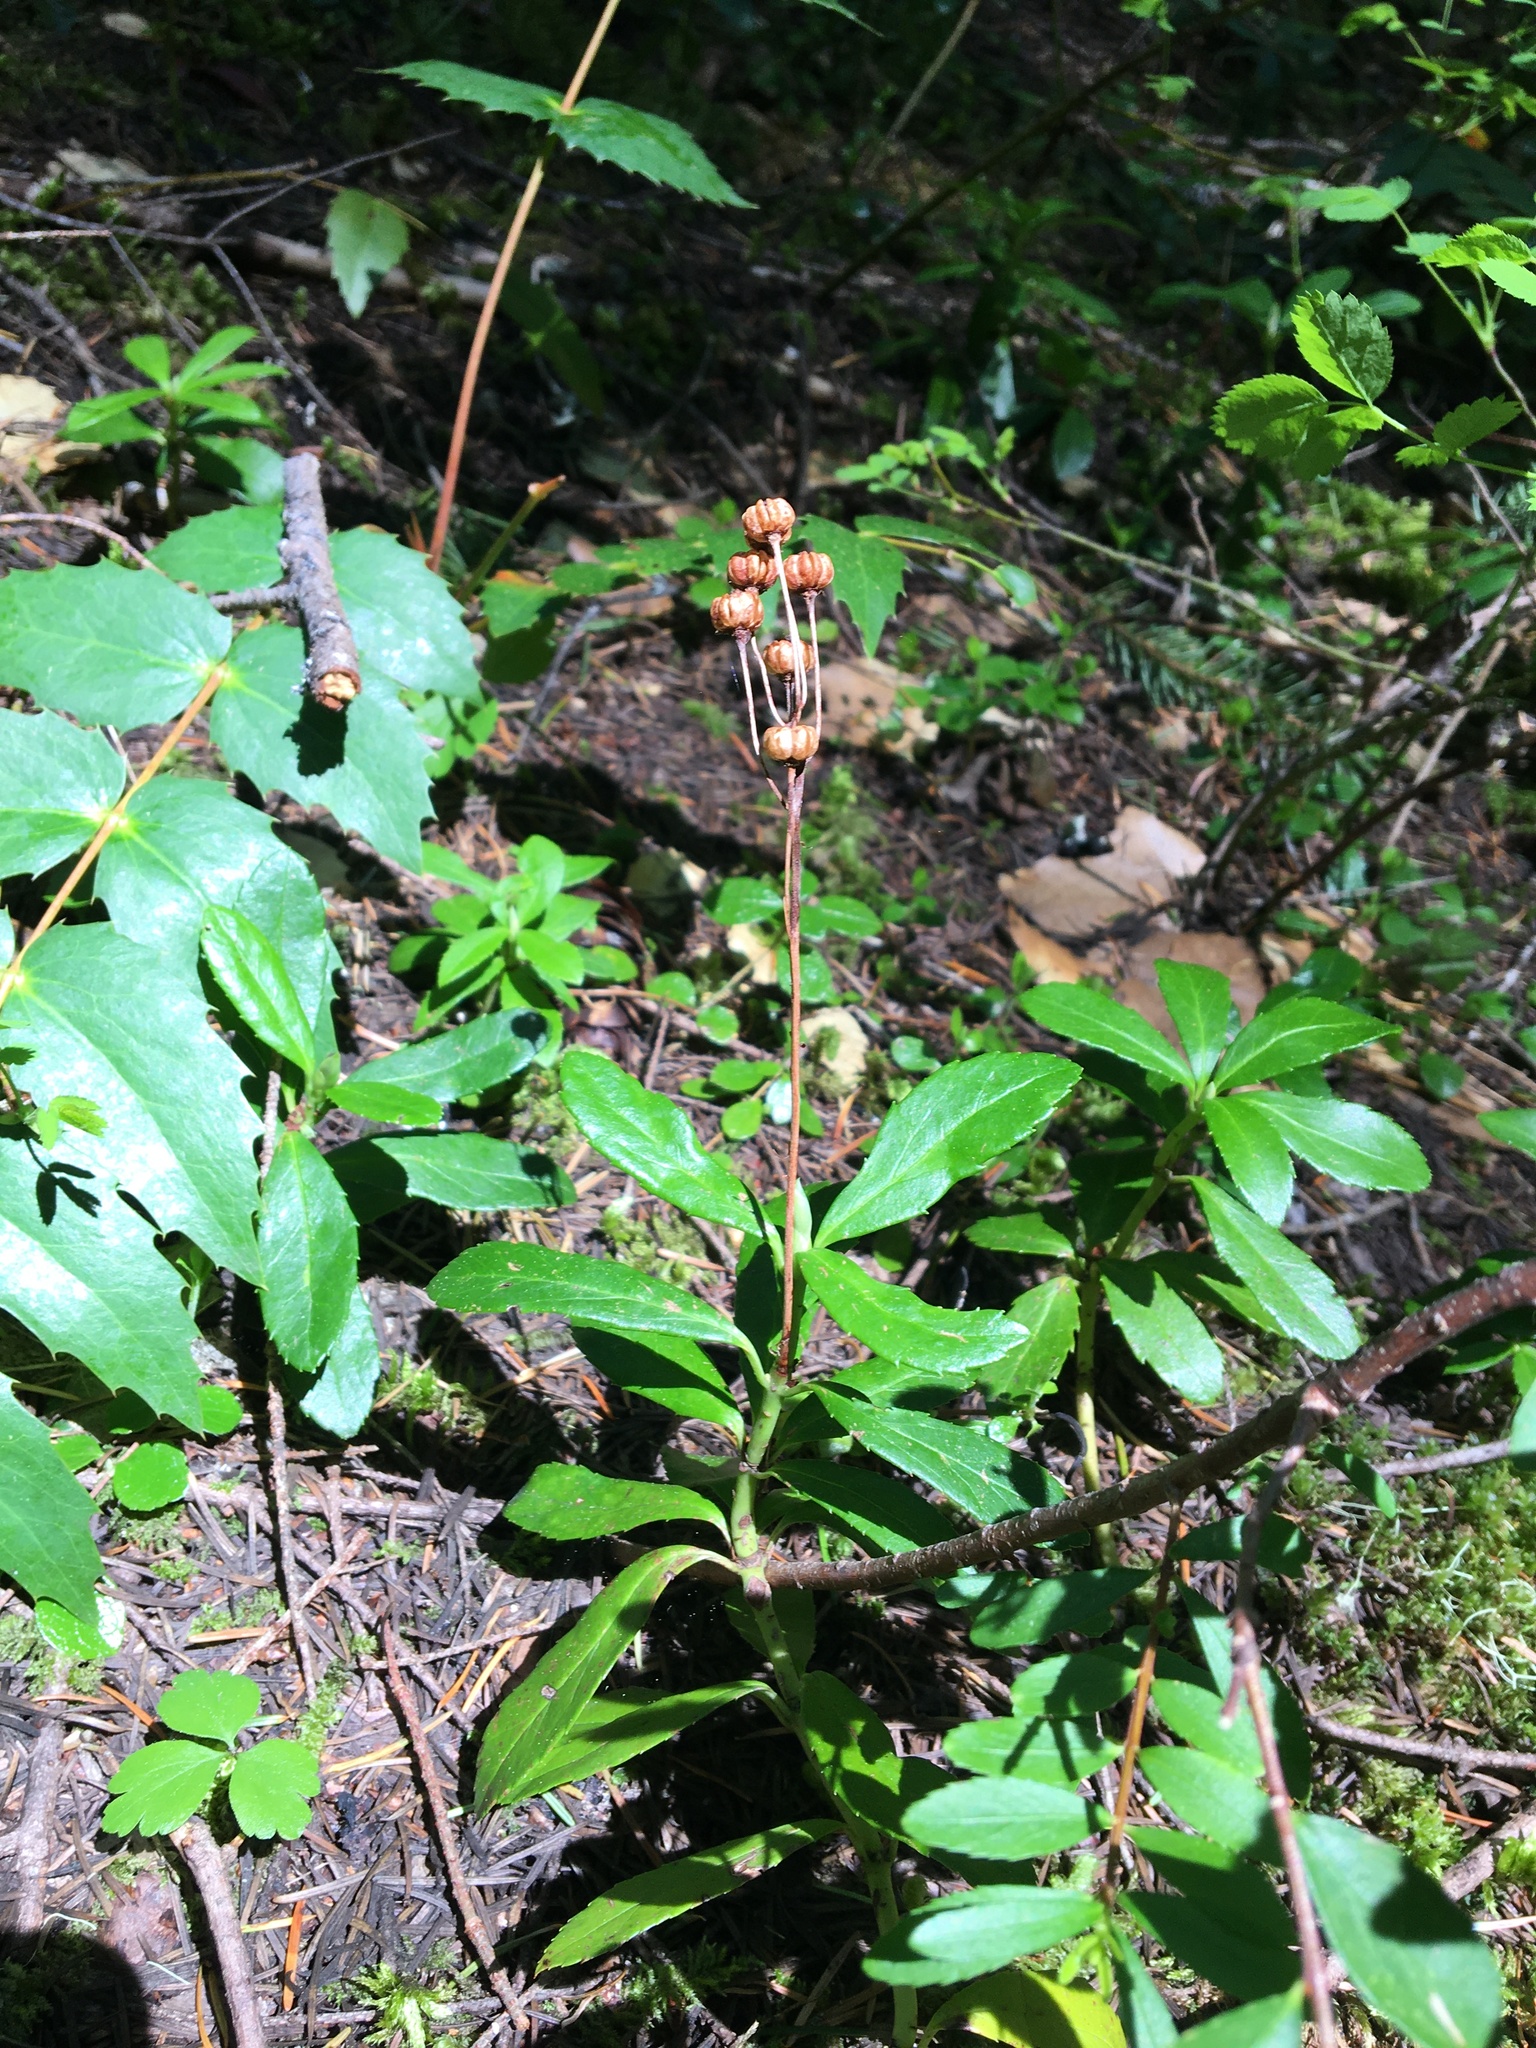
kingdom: Plantae
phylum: Tracheophyta
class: Magnoliopsida
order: Ericales
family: Ericaceae
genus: Chimaphila
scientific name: Chimaphila umbellata
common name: Pipsissewa
